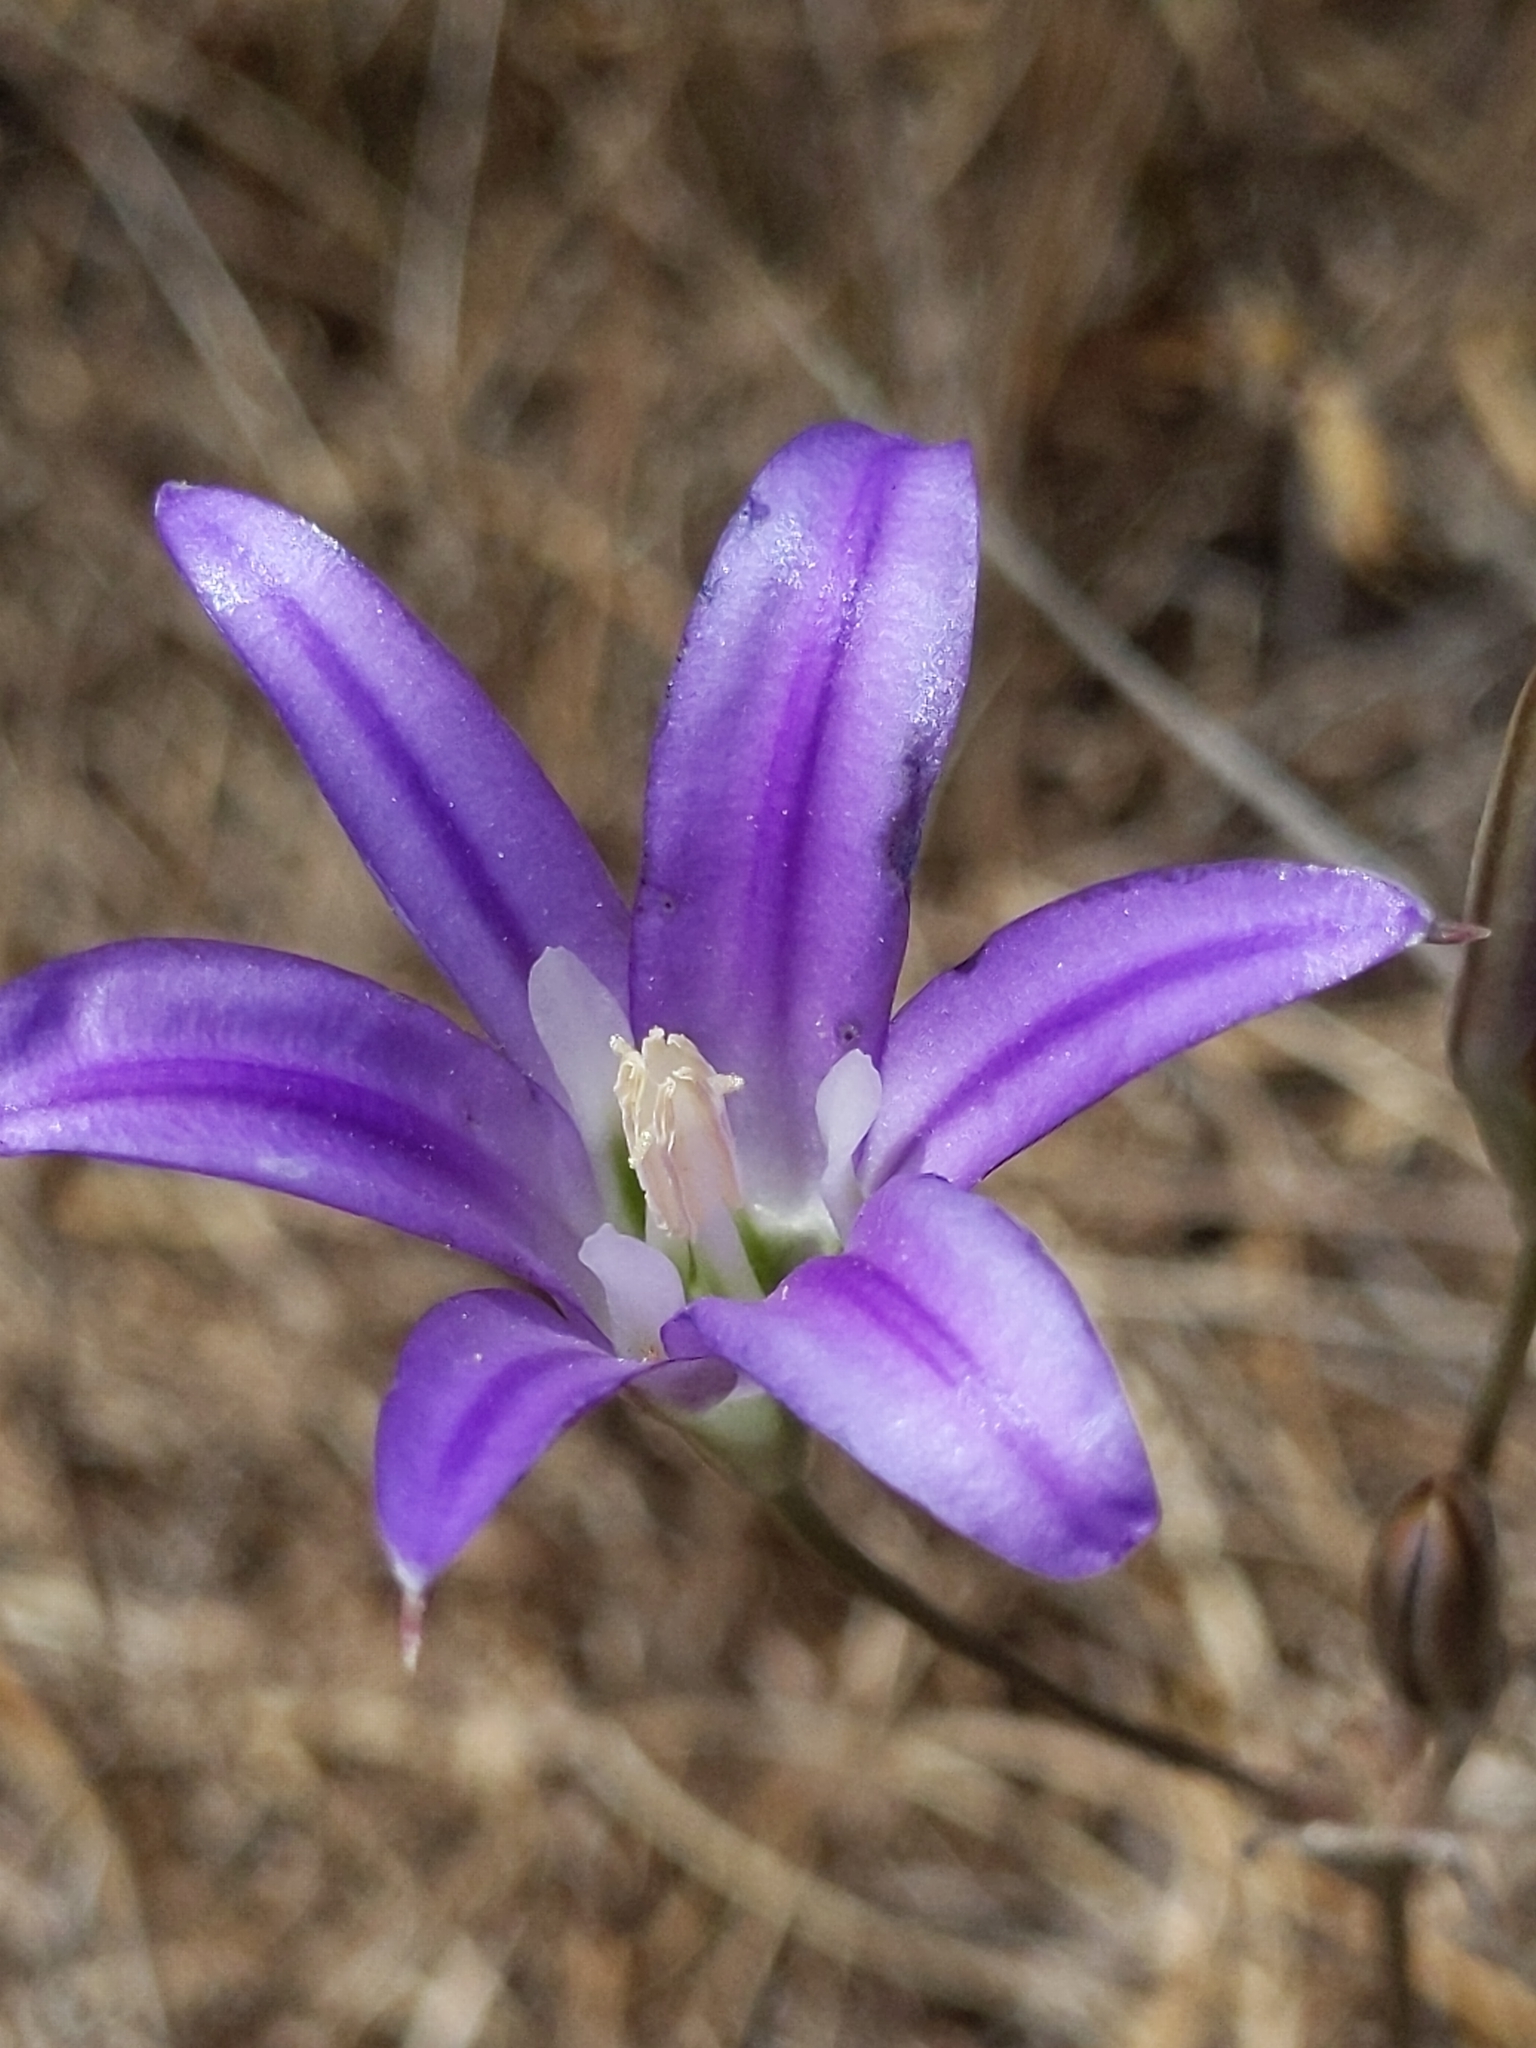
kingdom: Plantae
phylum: Tracheophyta
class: Liliopsida
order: Asparagales
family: Asparagaceae
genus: Brodiaea
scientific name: Brodiaea elegans
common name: Elegant cluster-lily
